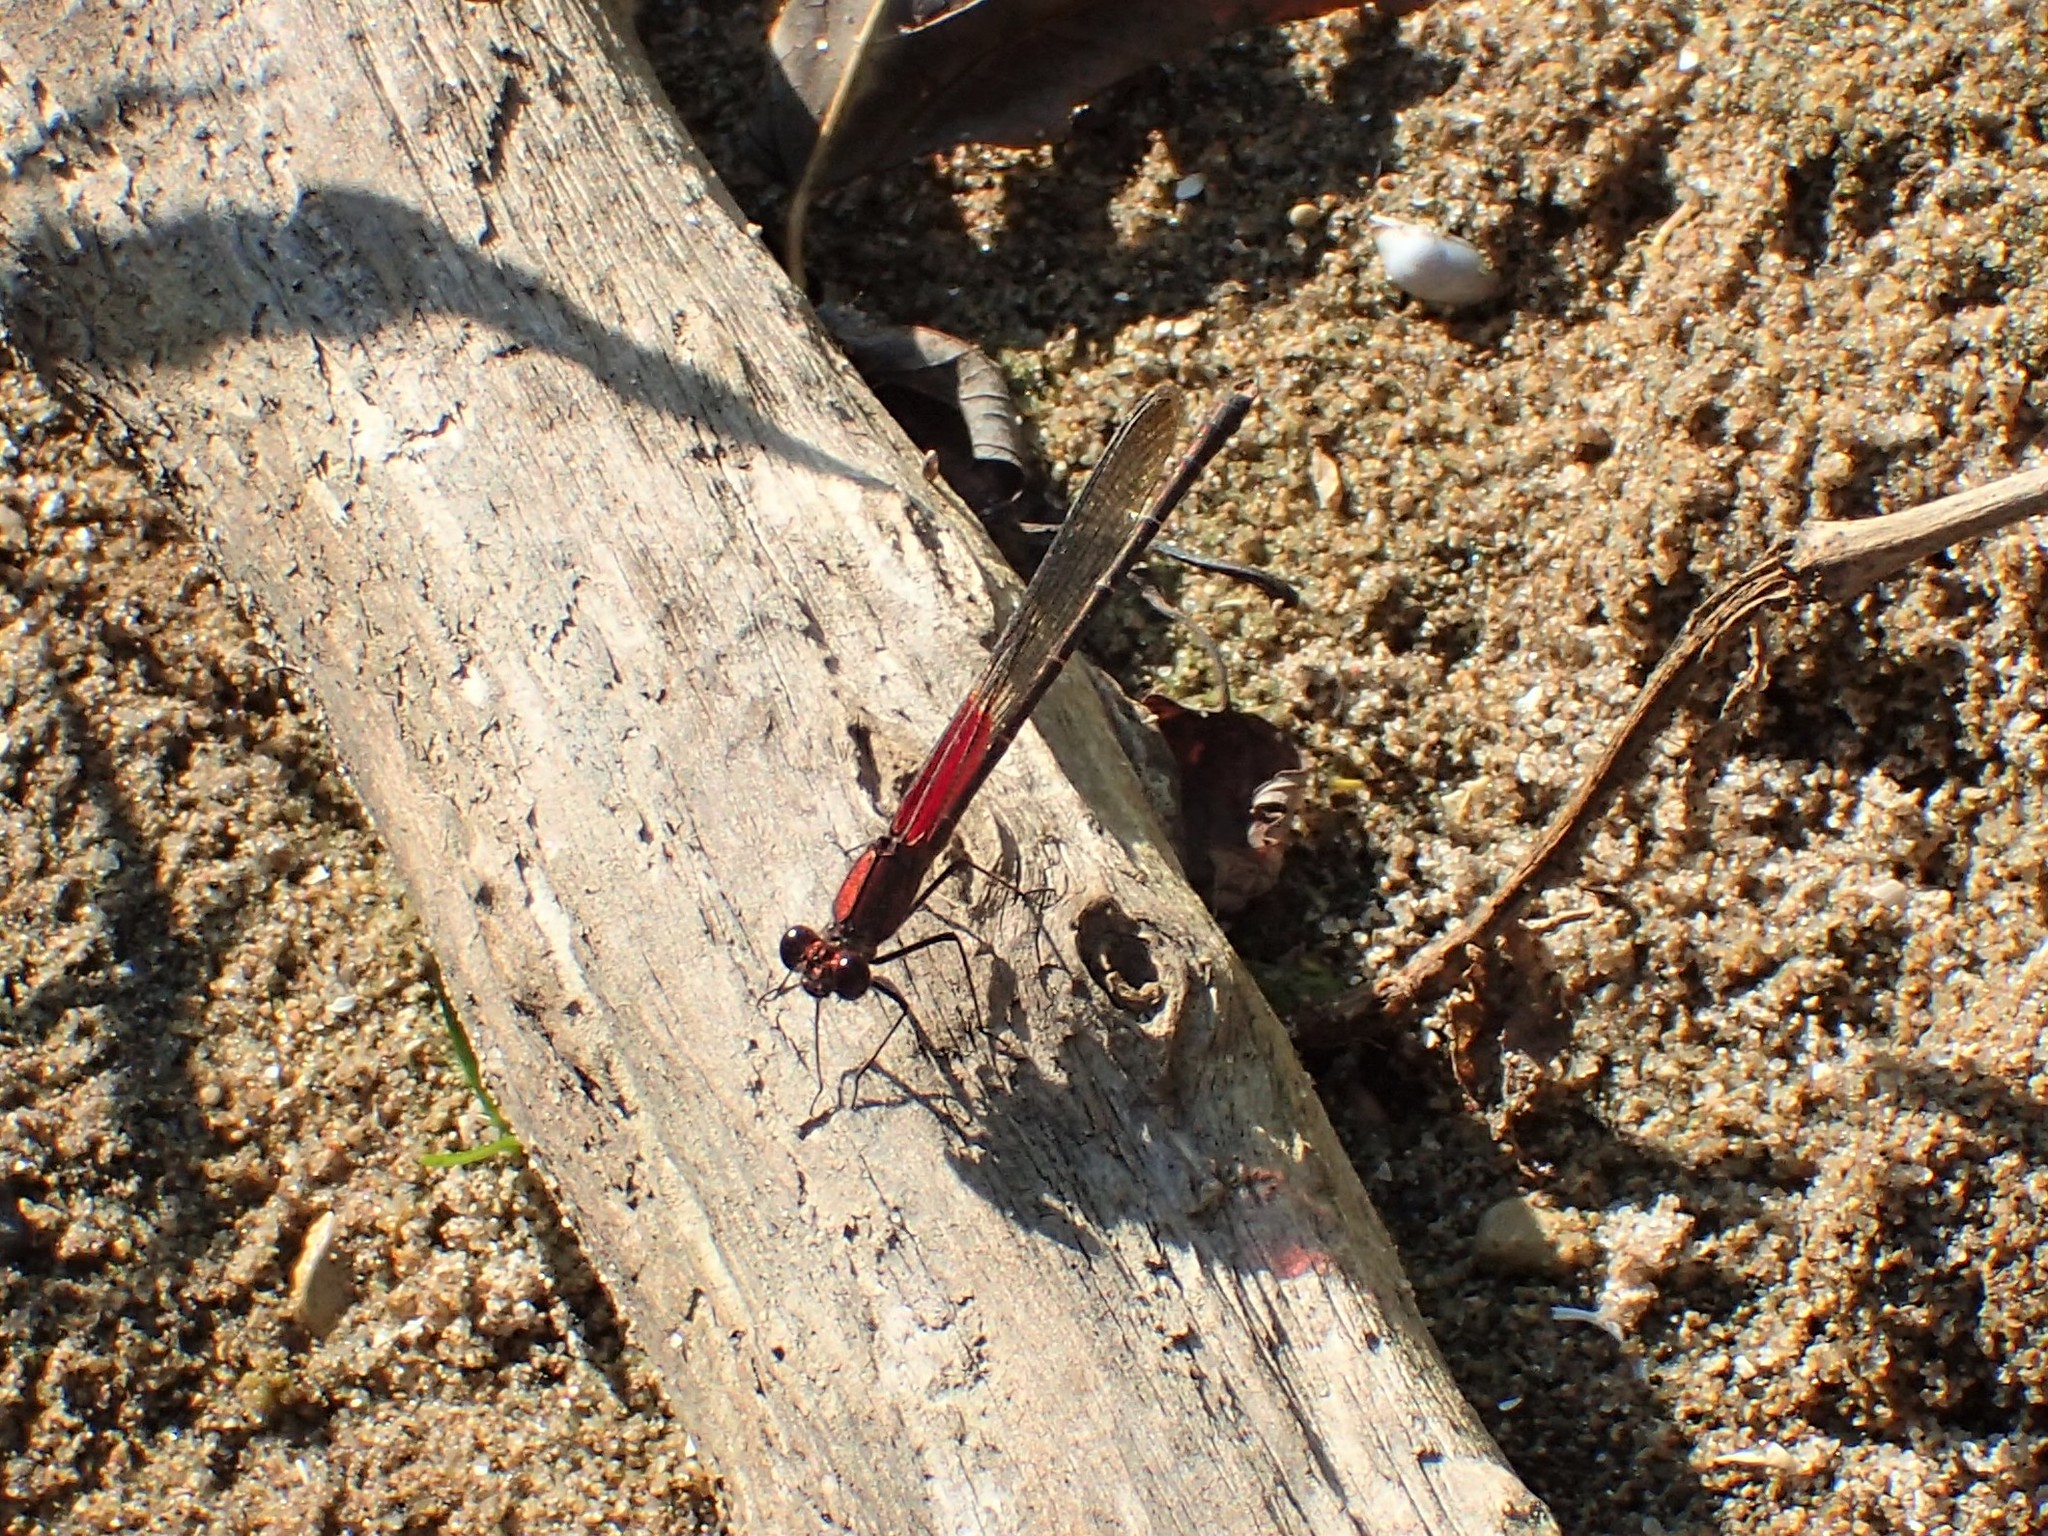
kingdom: Animalia
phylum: Arthropoda
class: Insecta
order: Odonata
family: Calopterygidae
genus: Hetaerina
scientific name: Hetaerina americana
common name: American rubyspot
